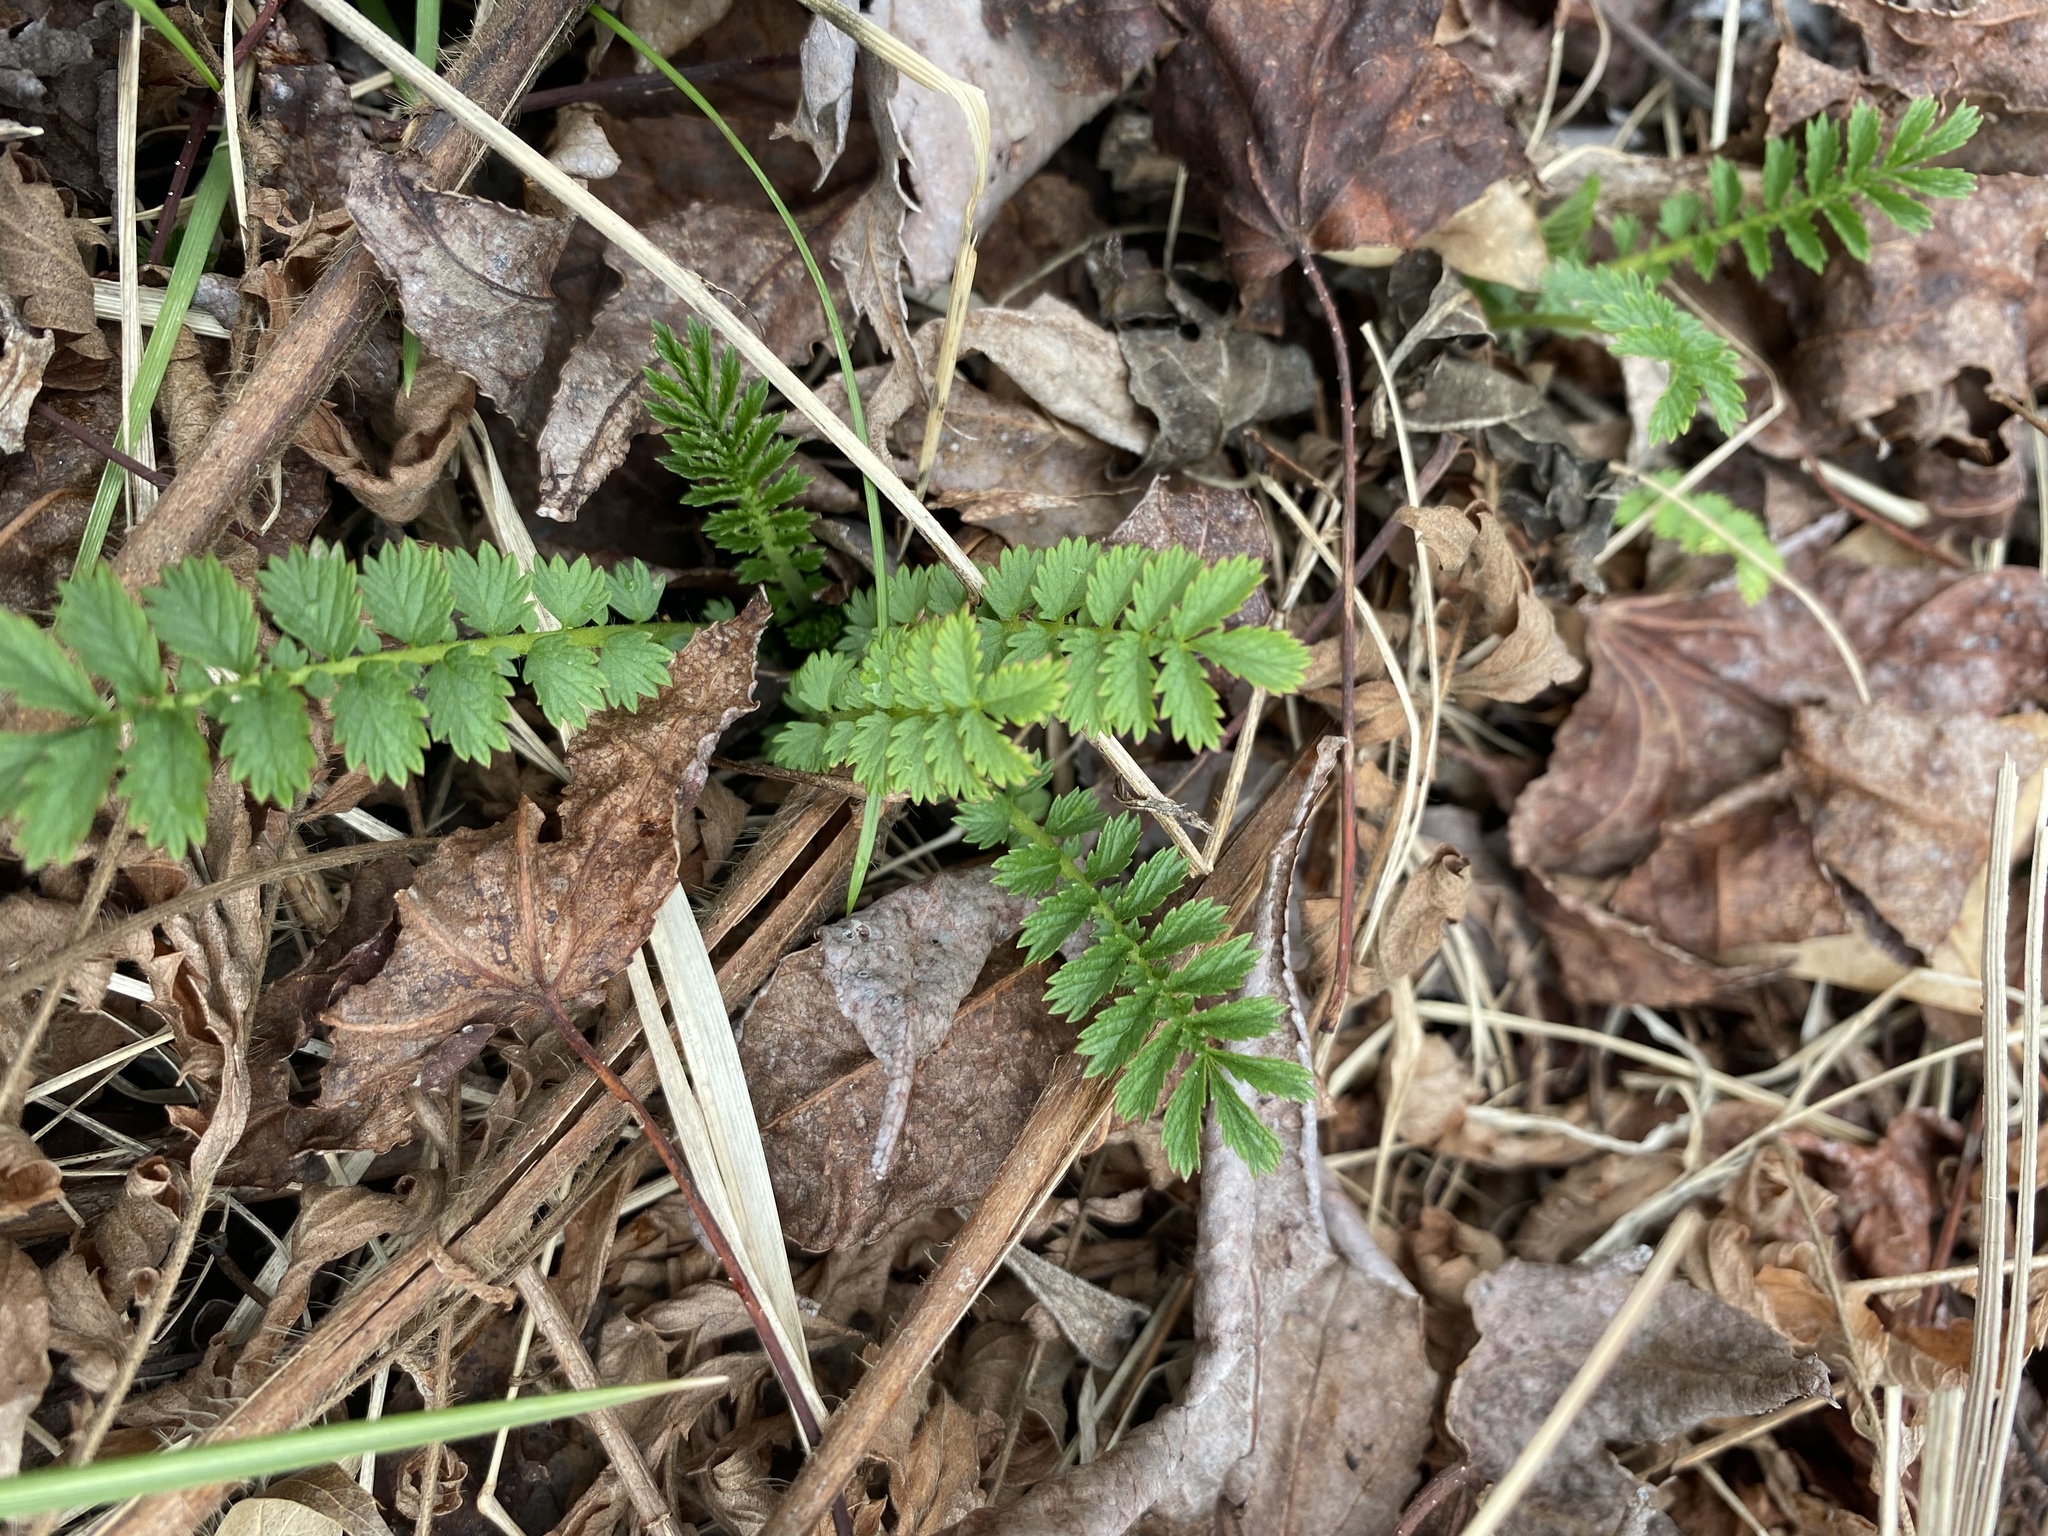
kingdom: Plantae
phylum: Tracheophyta
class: Magnoliopsida
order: Rosales
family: Rosaceae
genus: Agrimonia
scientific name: Agrimonia parviflora
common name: Harvest-lice
